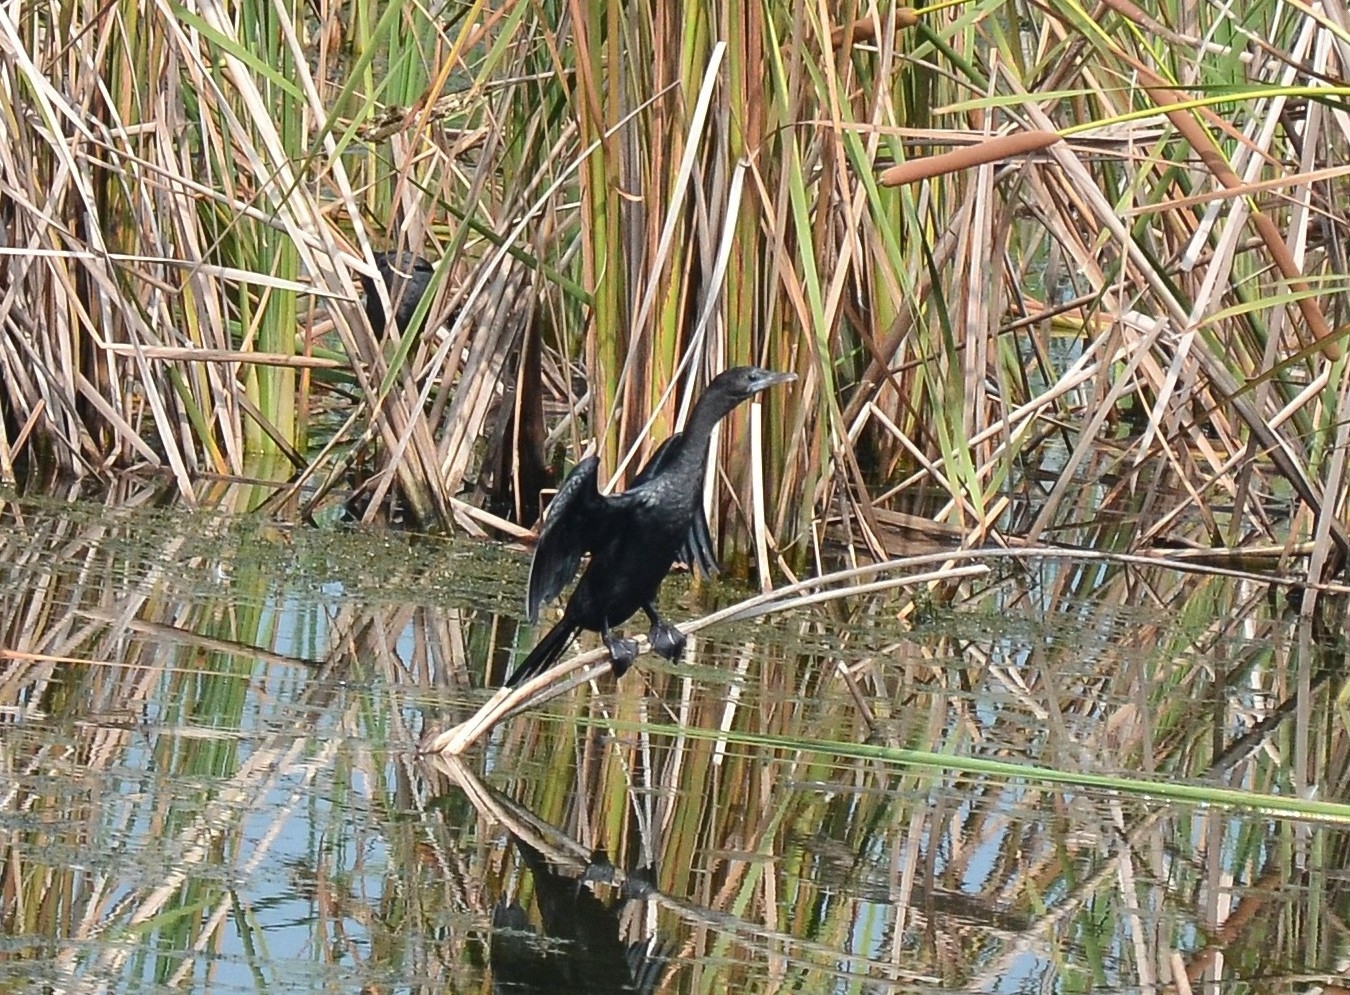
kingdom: Animalia
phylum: Chordata
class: Aves
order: Suliformes
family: Phalacrocoracidae
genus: Microcarbo
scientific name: Microcarbo niger
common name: Little cormorant
